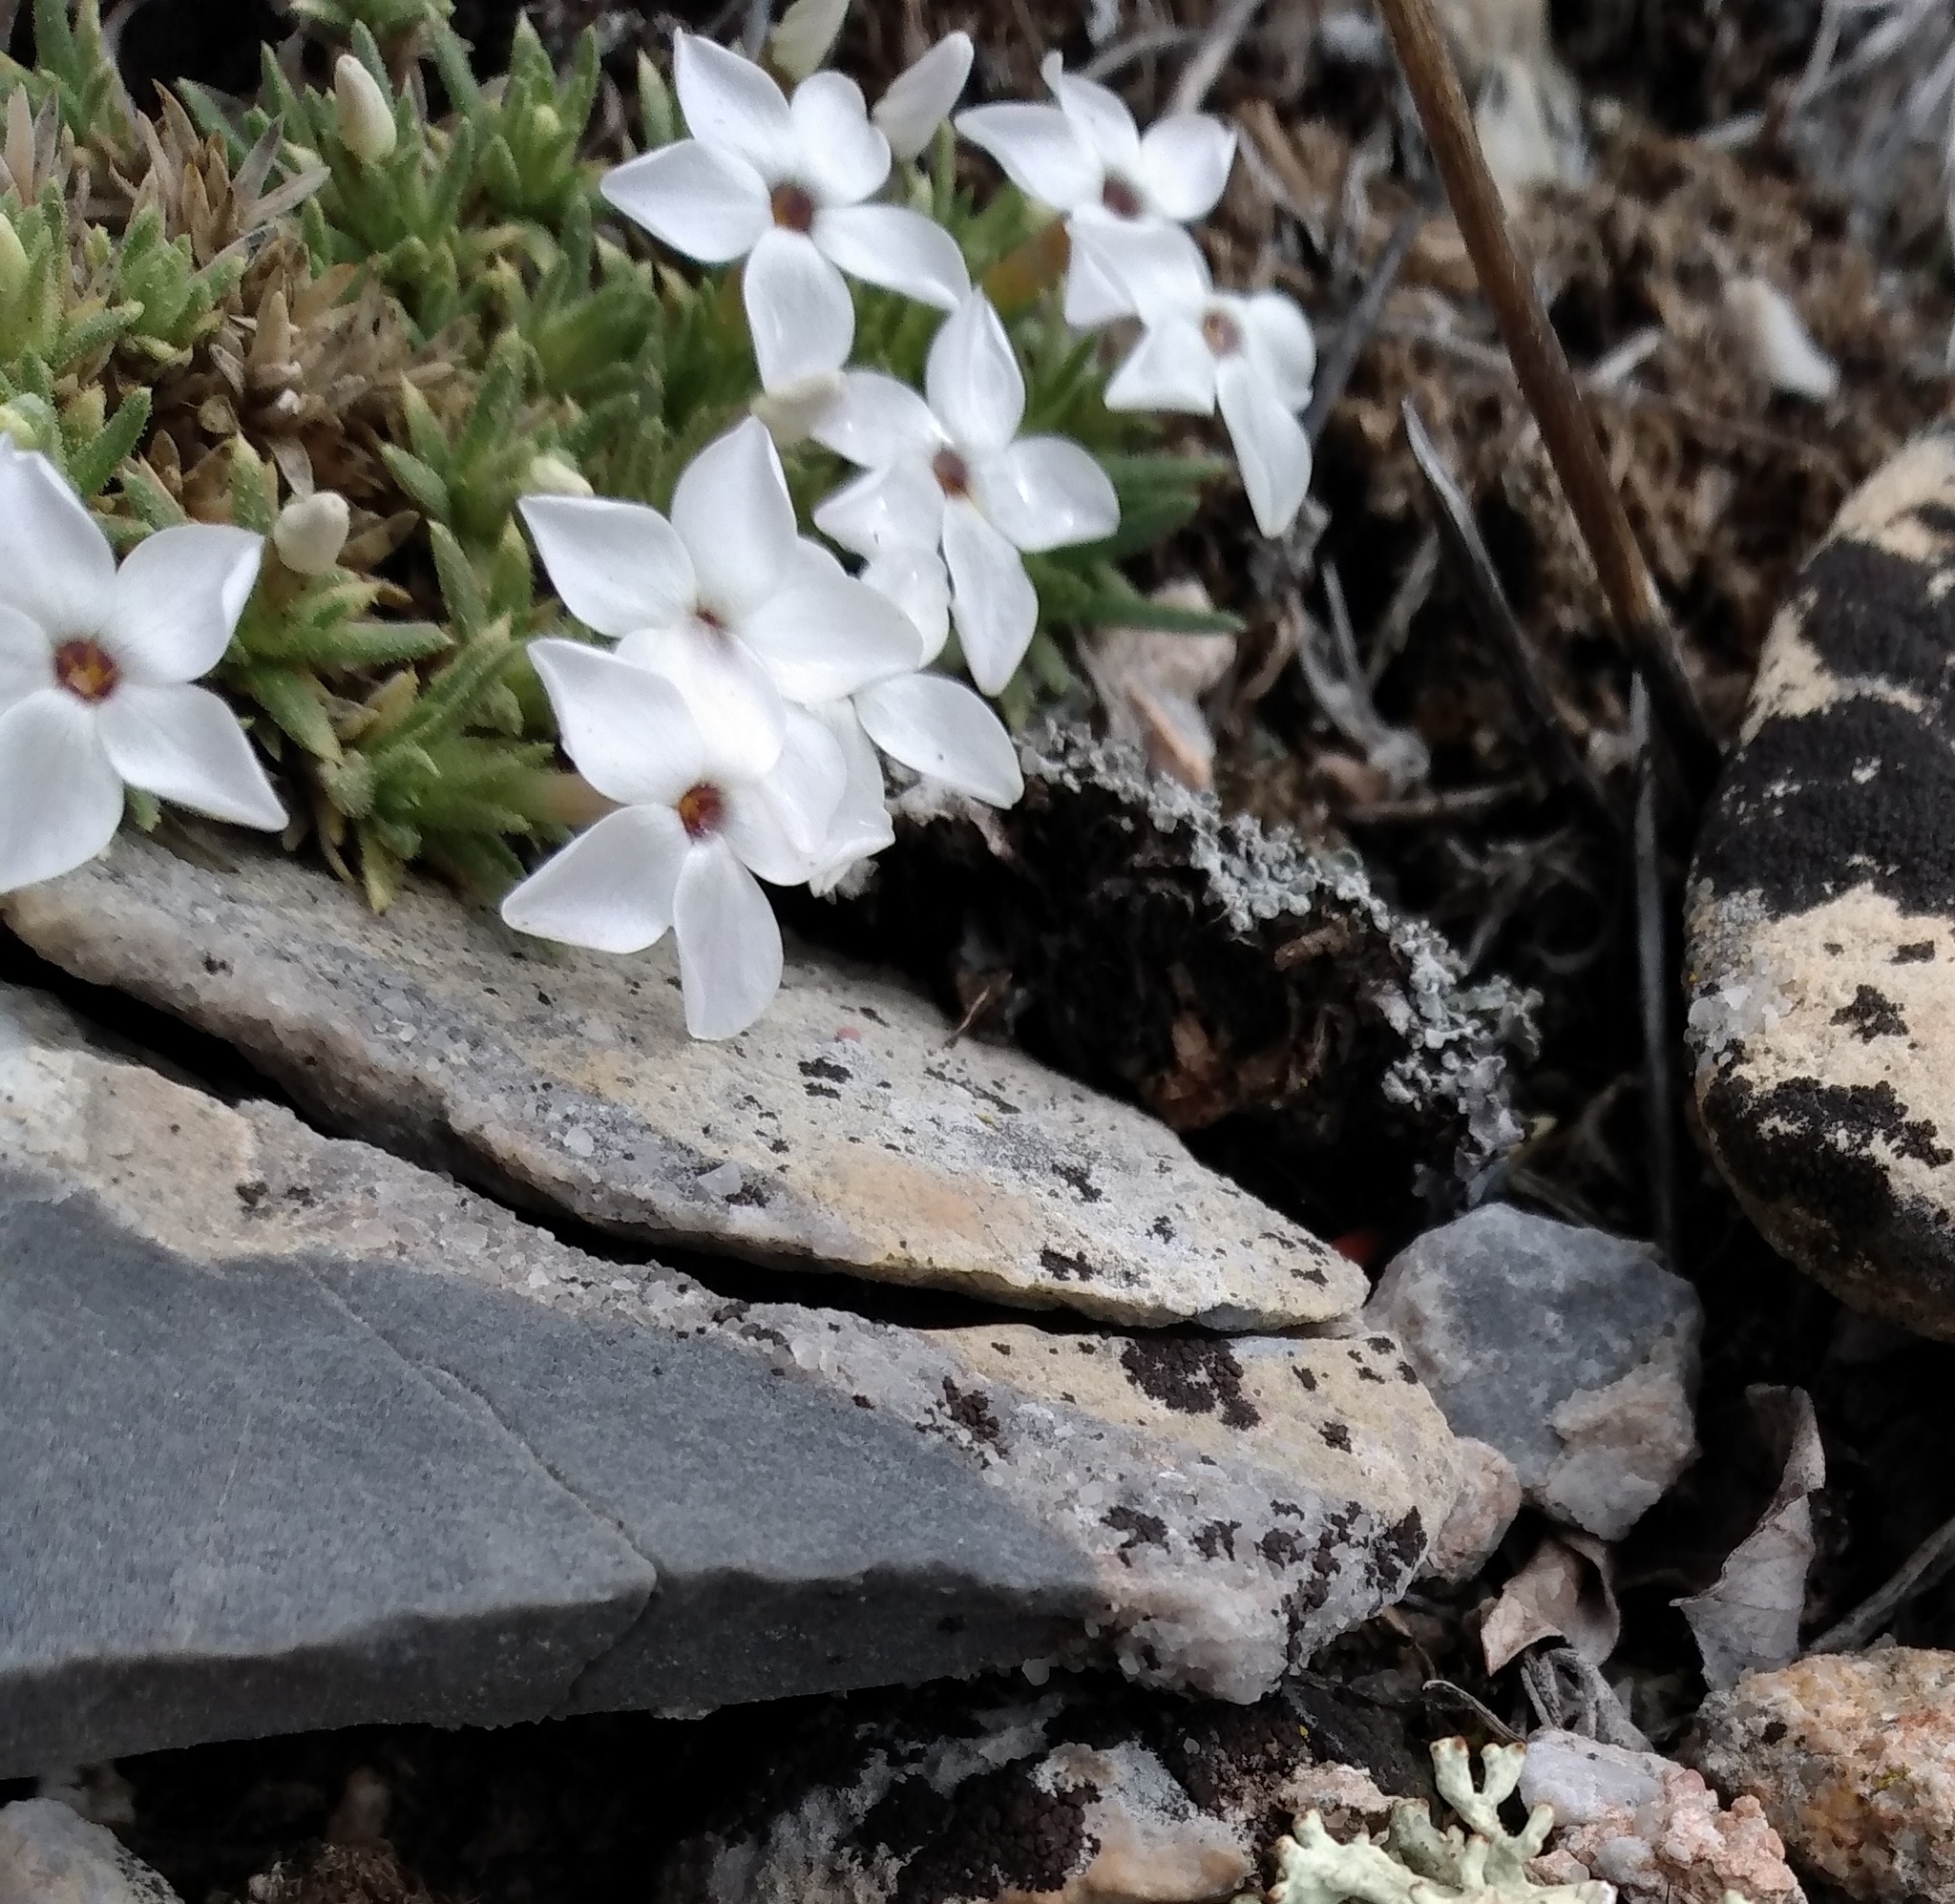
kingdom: Plantae
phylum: Tracheophyta
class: Magnoliopsida
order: Ericales
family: Polemoniaceae
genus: Phlox
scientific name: Phlox condensata
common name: Compact phlox
